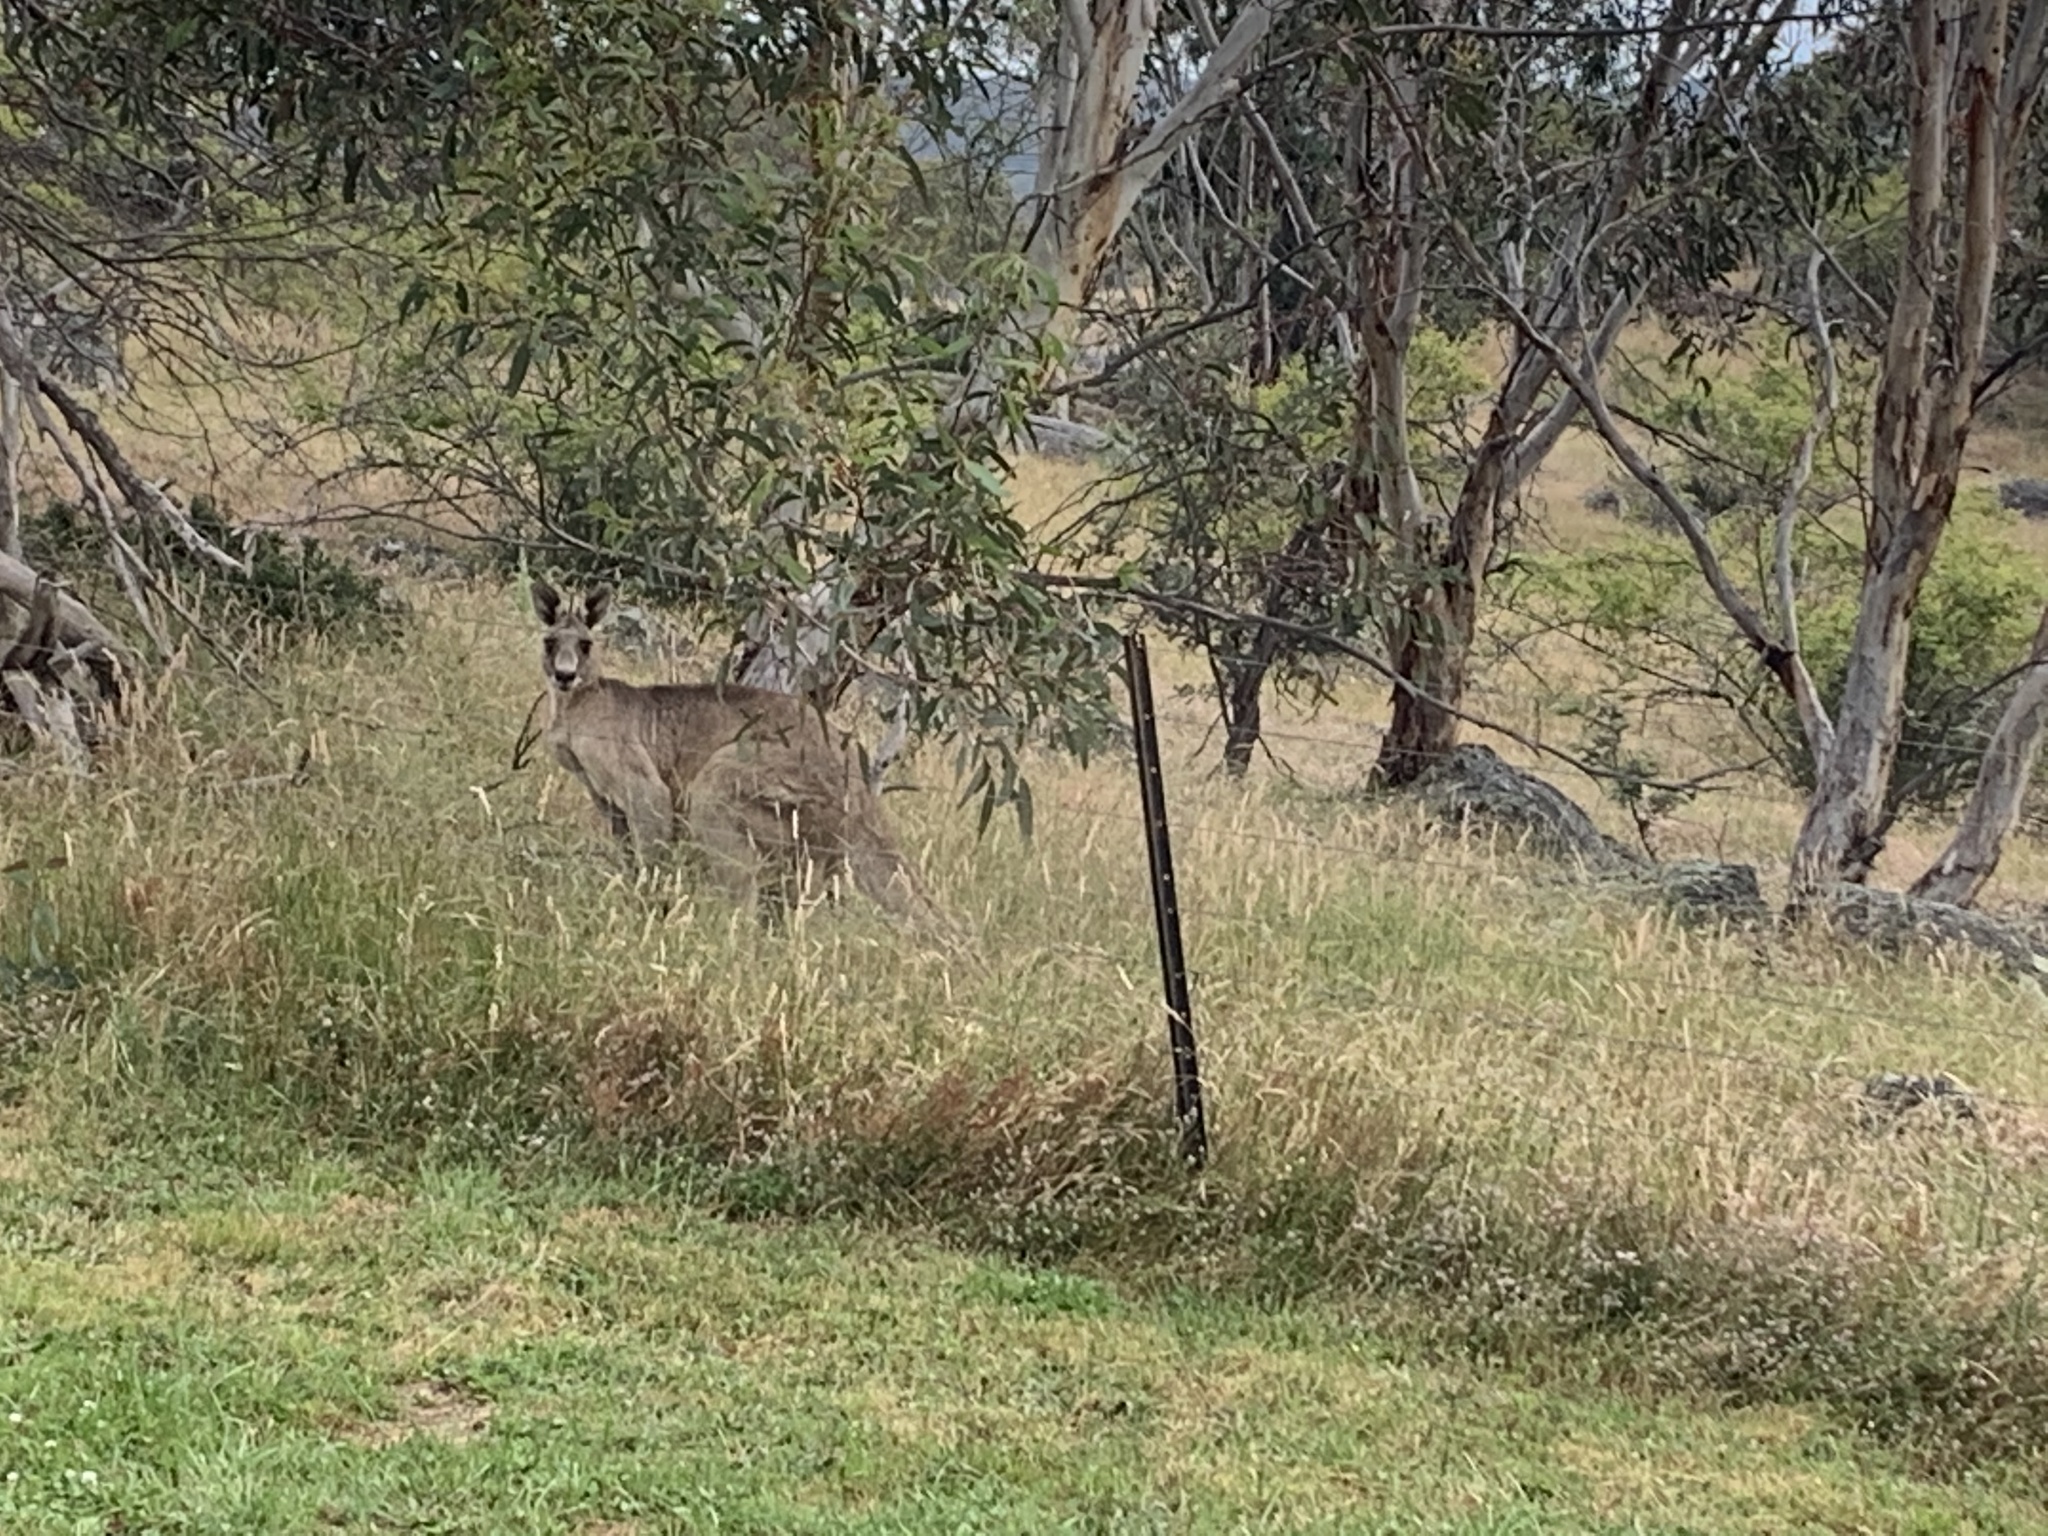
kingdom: Animalia
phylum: Chordata
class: Mammalia
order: Diprotodontia
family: Macropodidae
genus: Macropus
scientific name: Macropus giganteus
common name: Eastern grey kangaroo
